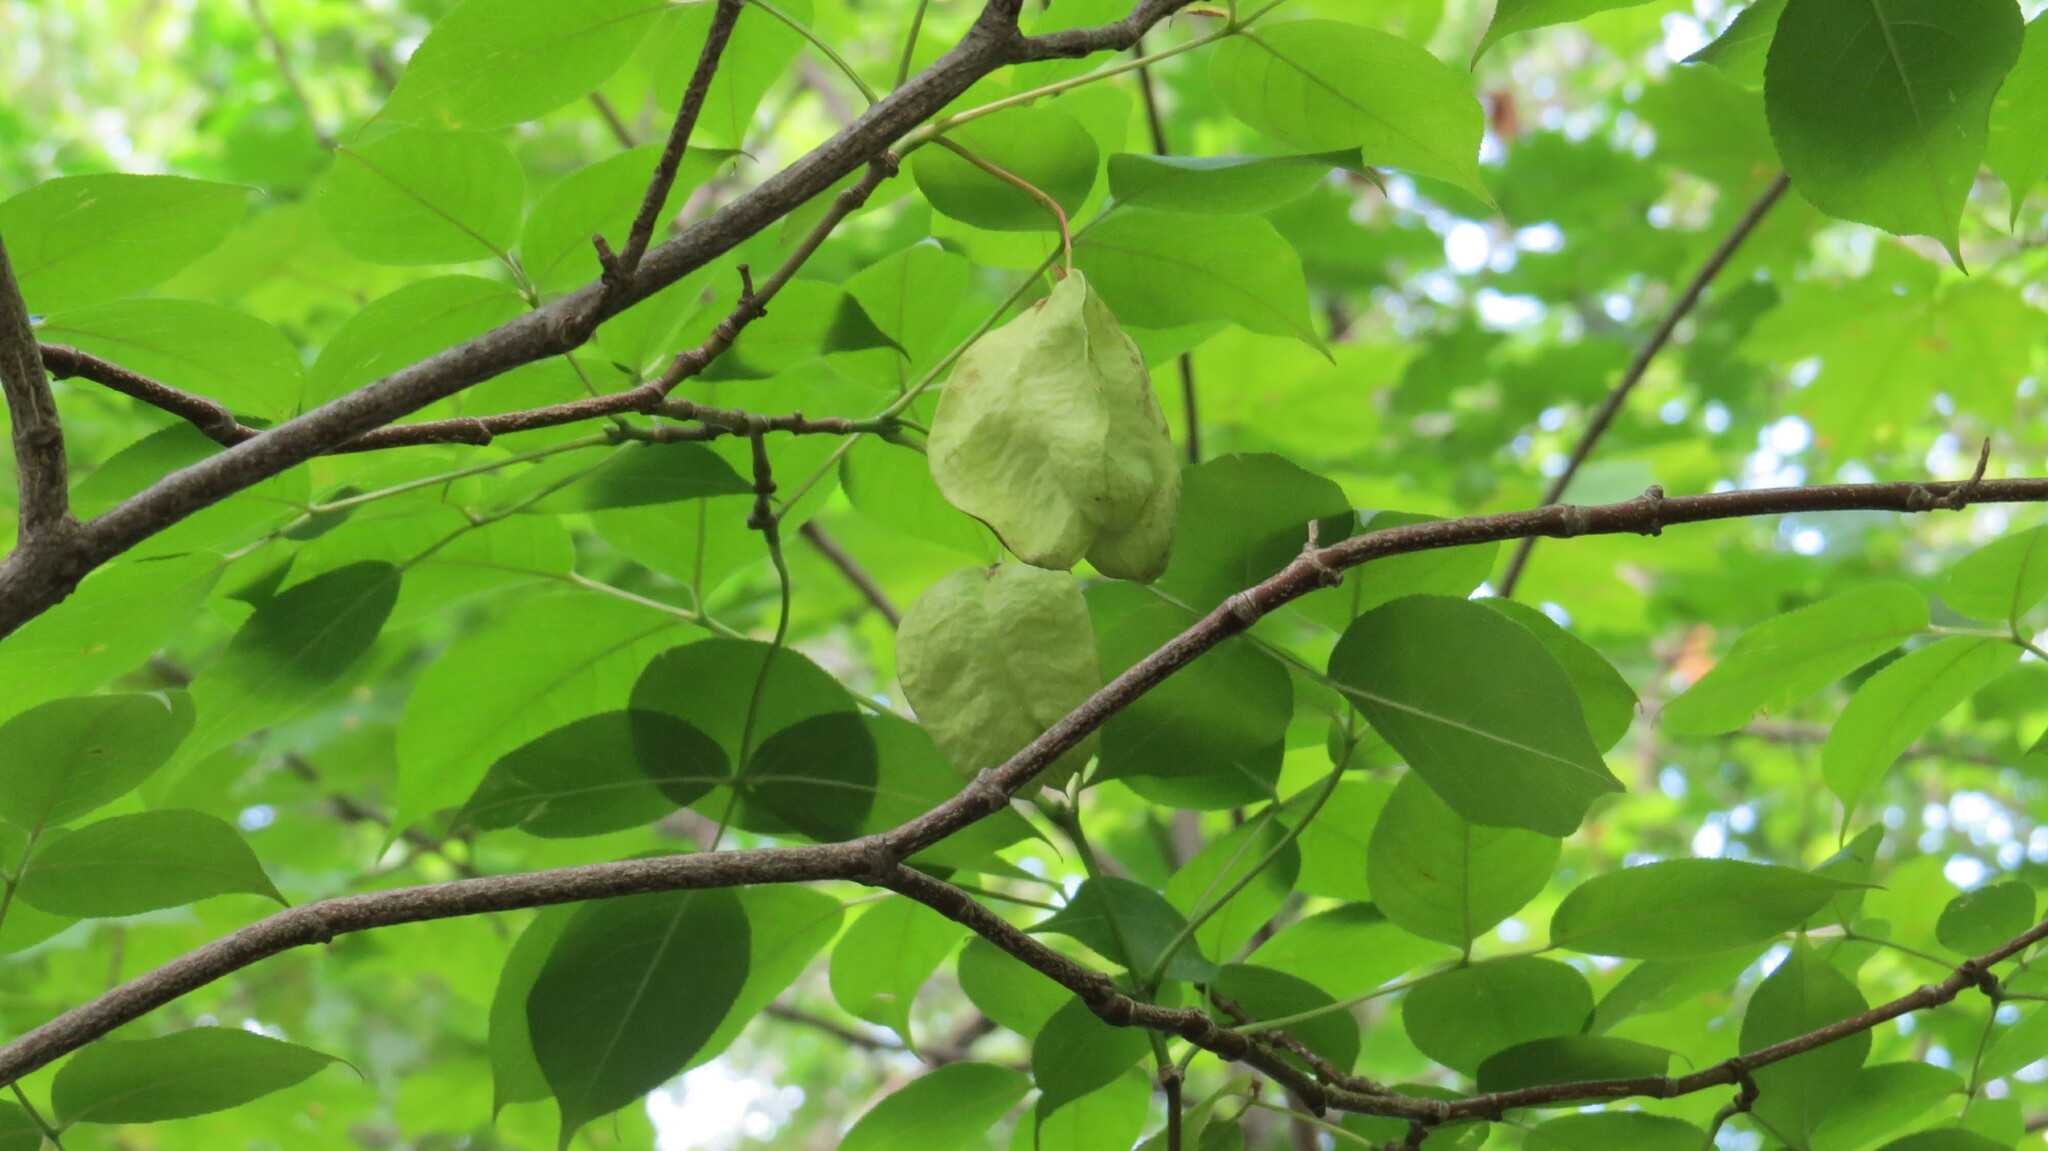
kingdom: Plantae
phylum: Tracheophyta
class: Magnoliopsida
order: Crossosomatales
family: Staphyleaceae
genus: Staphylea
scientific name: Staphylea trifolia
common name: American bladdernut
